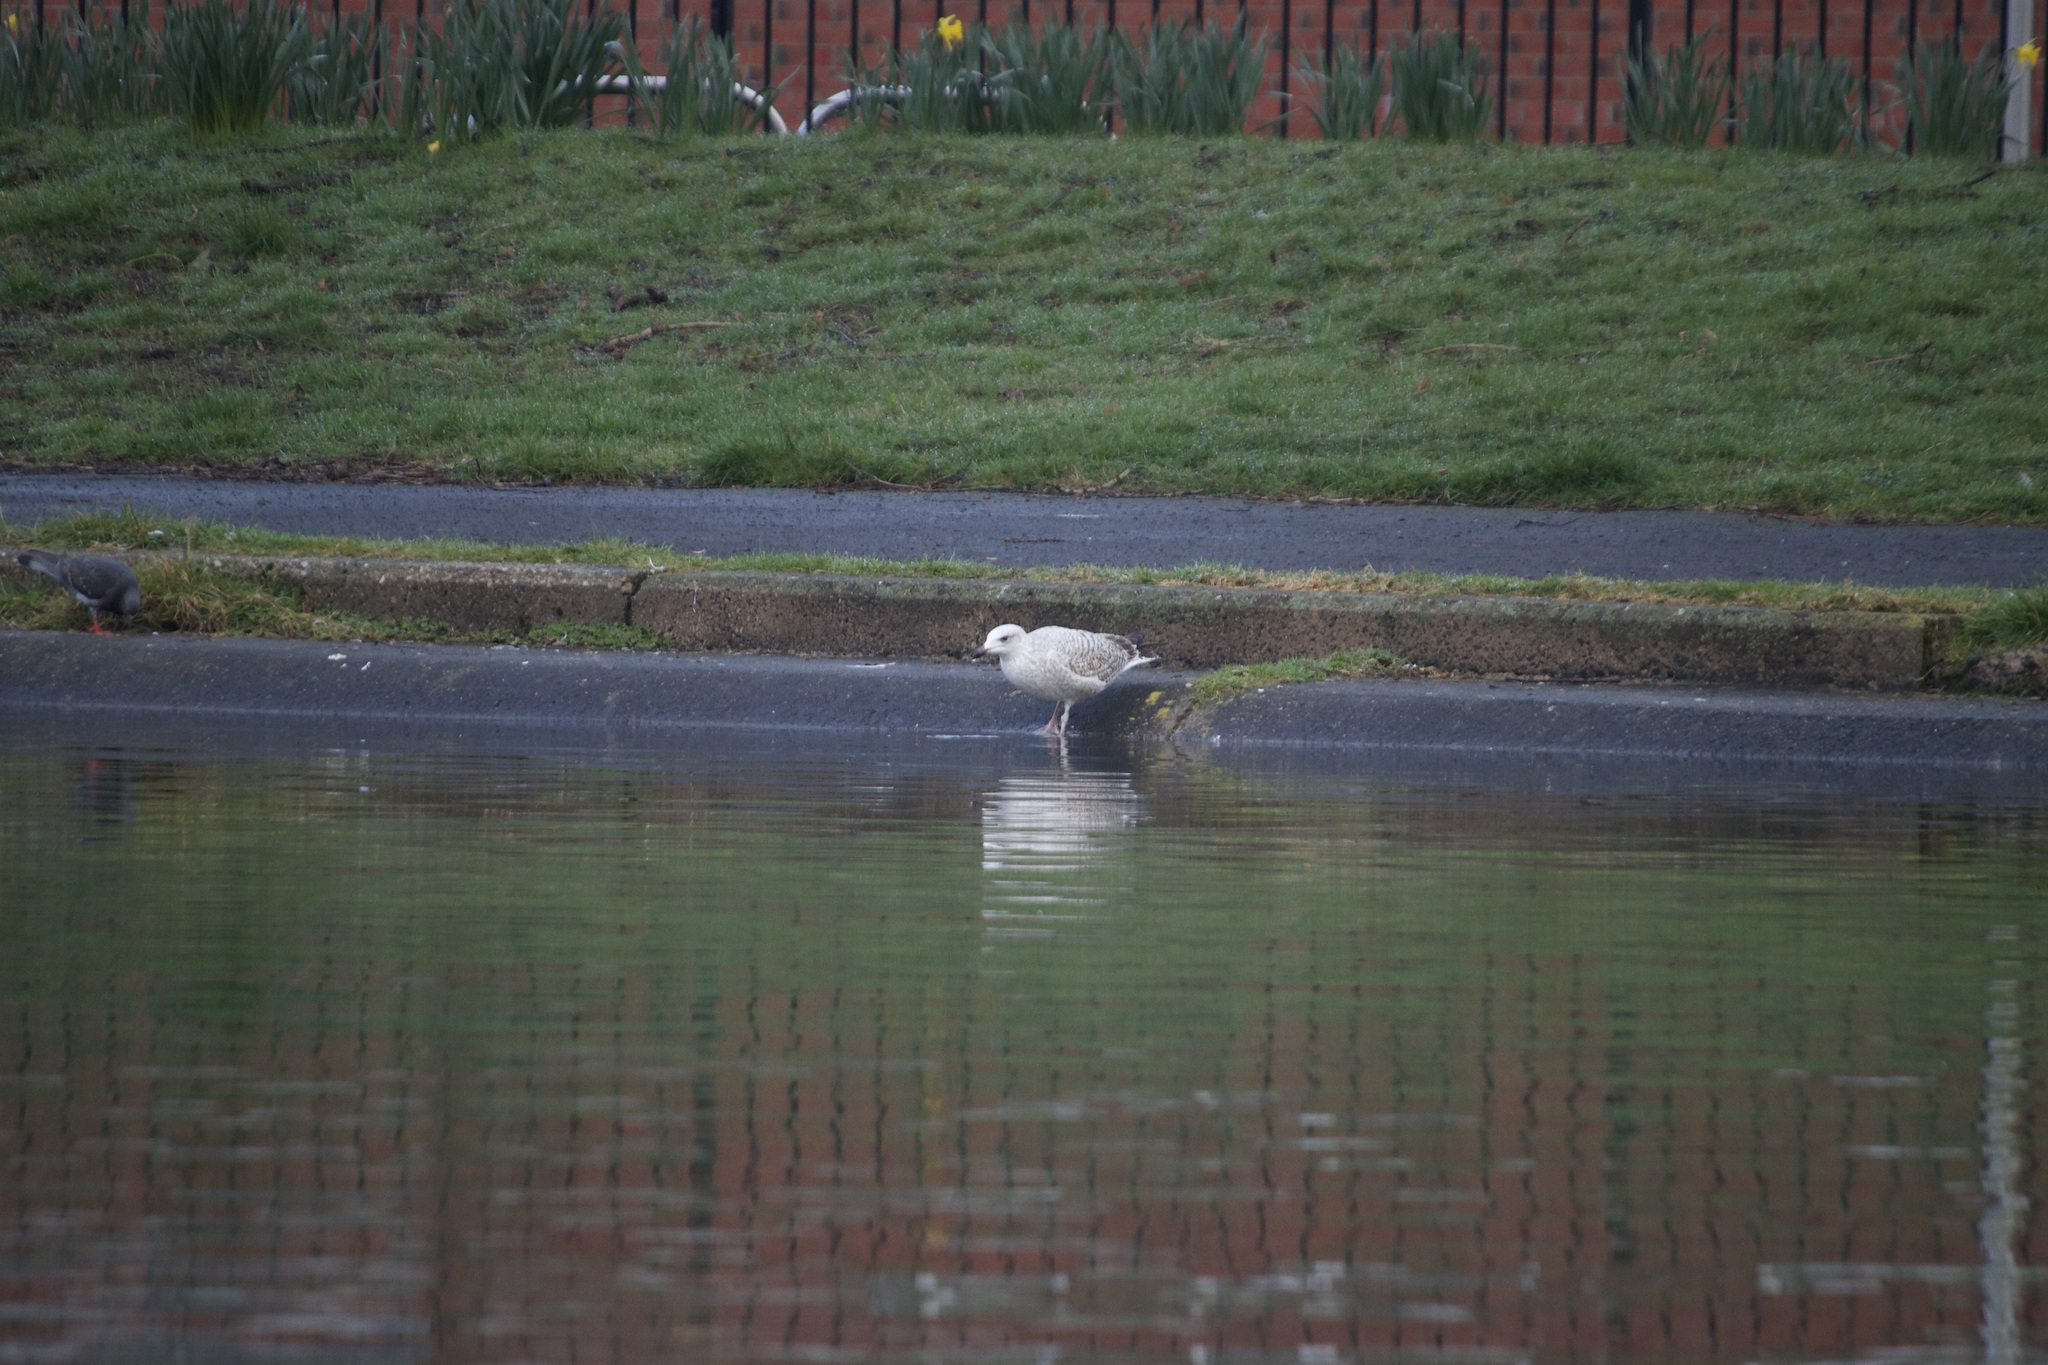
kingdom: Animalia
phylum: Chordata
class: Aves
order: Charadriiformes
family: Laridae
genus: Larus
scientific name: Larus argentatus
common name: Herring gull
